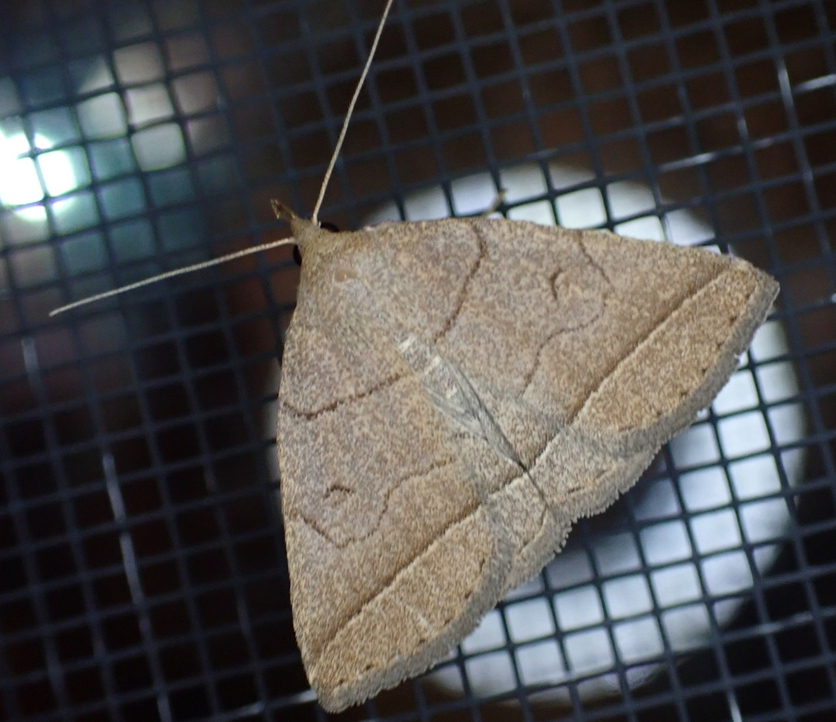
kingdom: Animalia
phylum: Arthropoda
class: Insecta
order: Lepidoptera
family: Erebidae
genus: Zanclognatha
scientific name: Zanclognatha cruralis
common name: Early fan-foot
